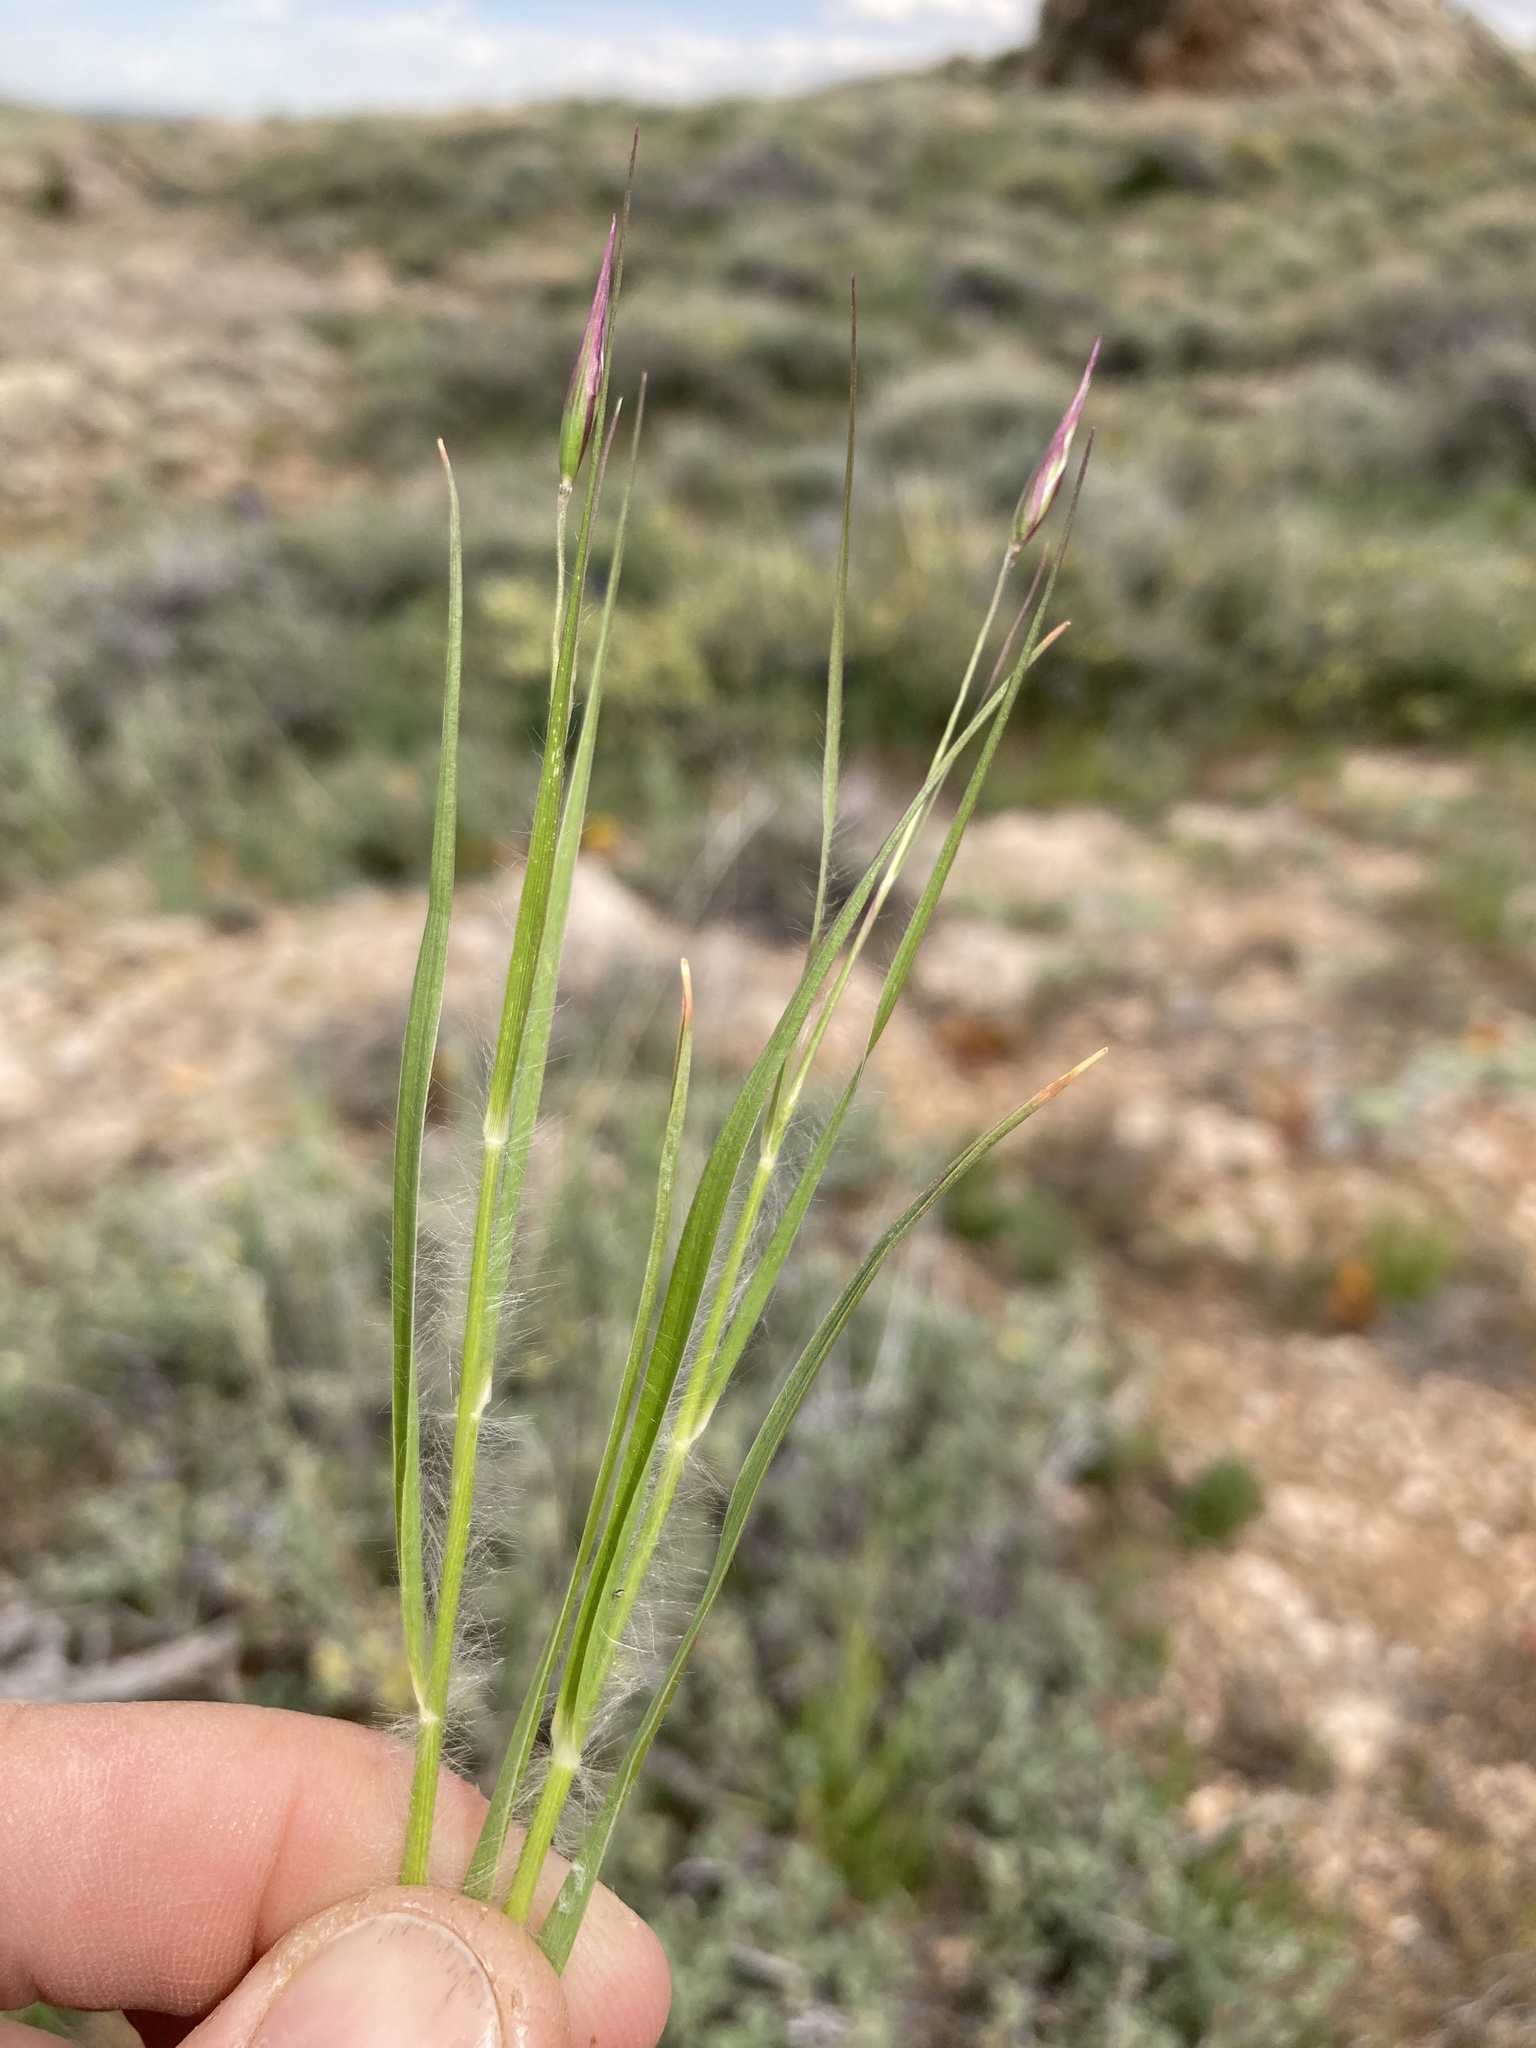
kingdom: Plantae
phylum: Tracheophyta
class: Liliopsida
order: Poales
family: Poaceae
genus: Danthonia
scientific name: Danthonia unispicata
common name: Few-flowered oatgrass
